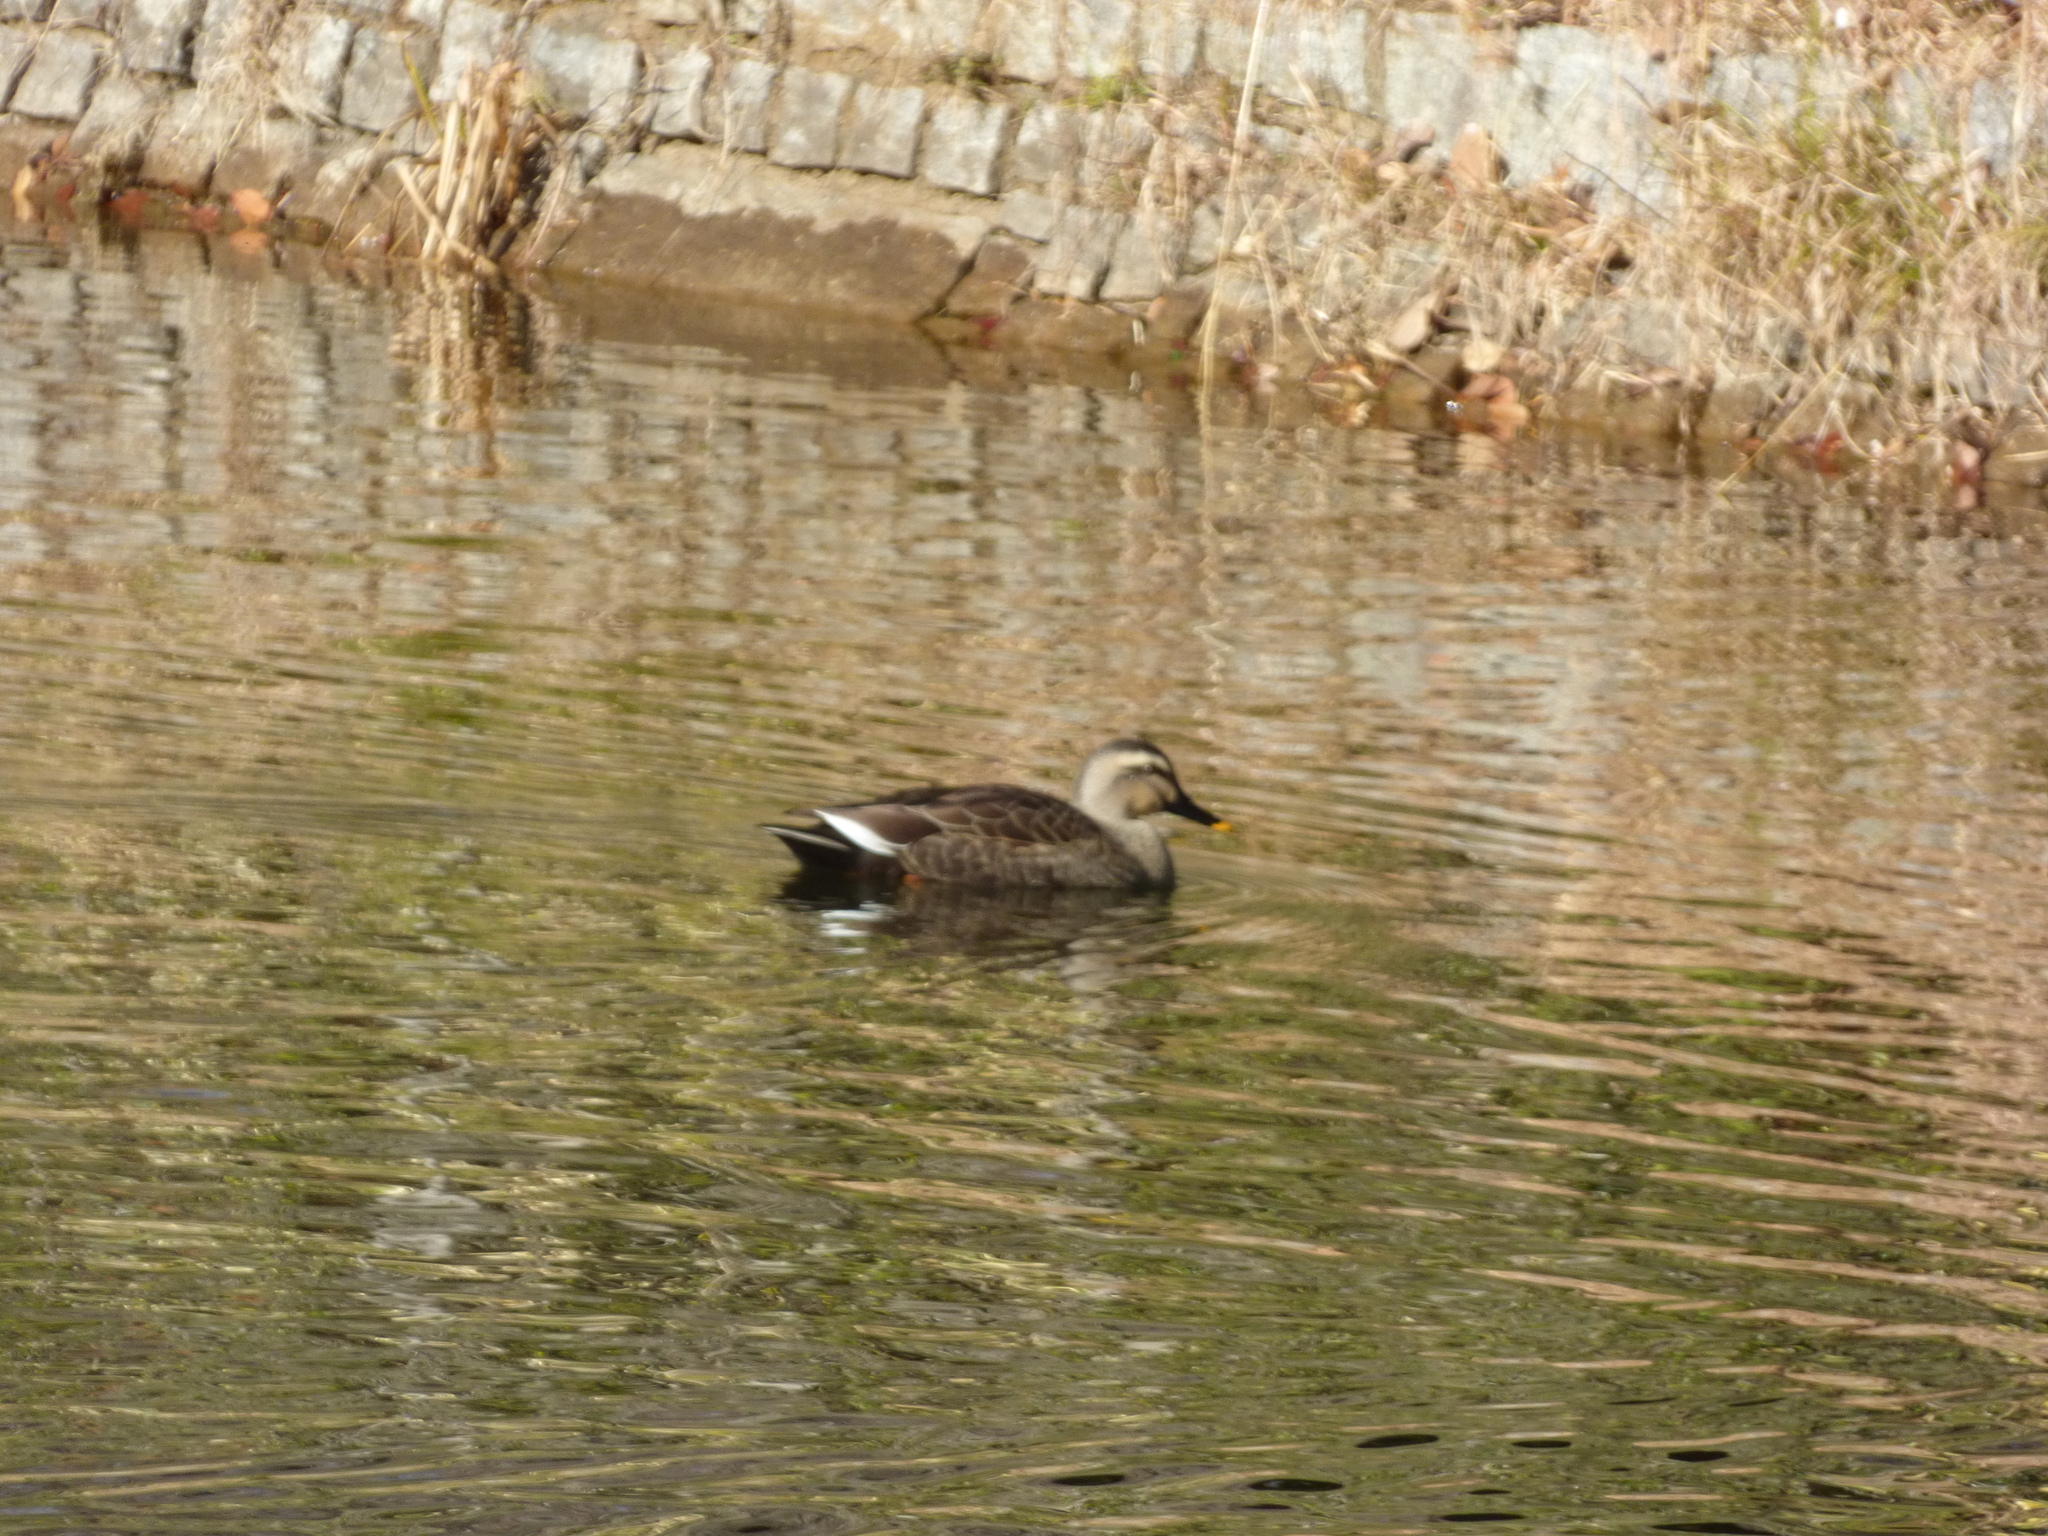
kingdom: Animalia
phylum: Chordata
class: Aves
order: Anseriformes
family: Anatidae
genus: Anas
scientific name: Anas zonorhyncha
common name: Eastern spot-billed duck
